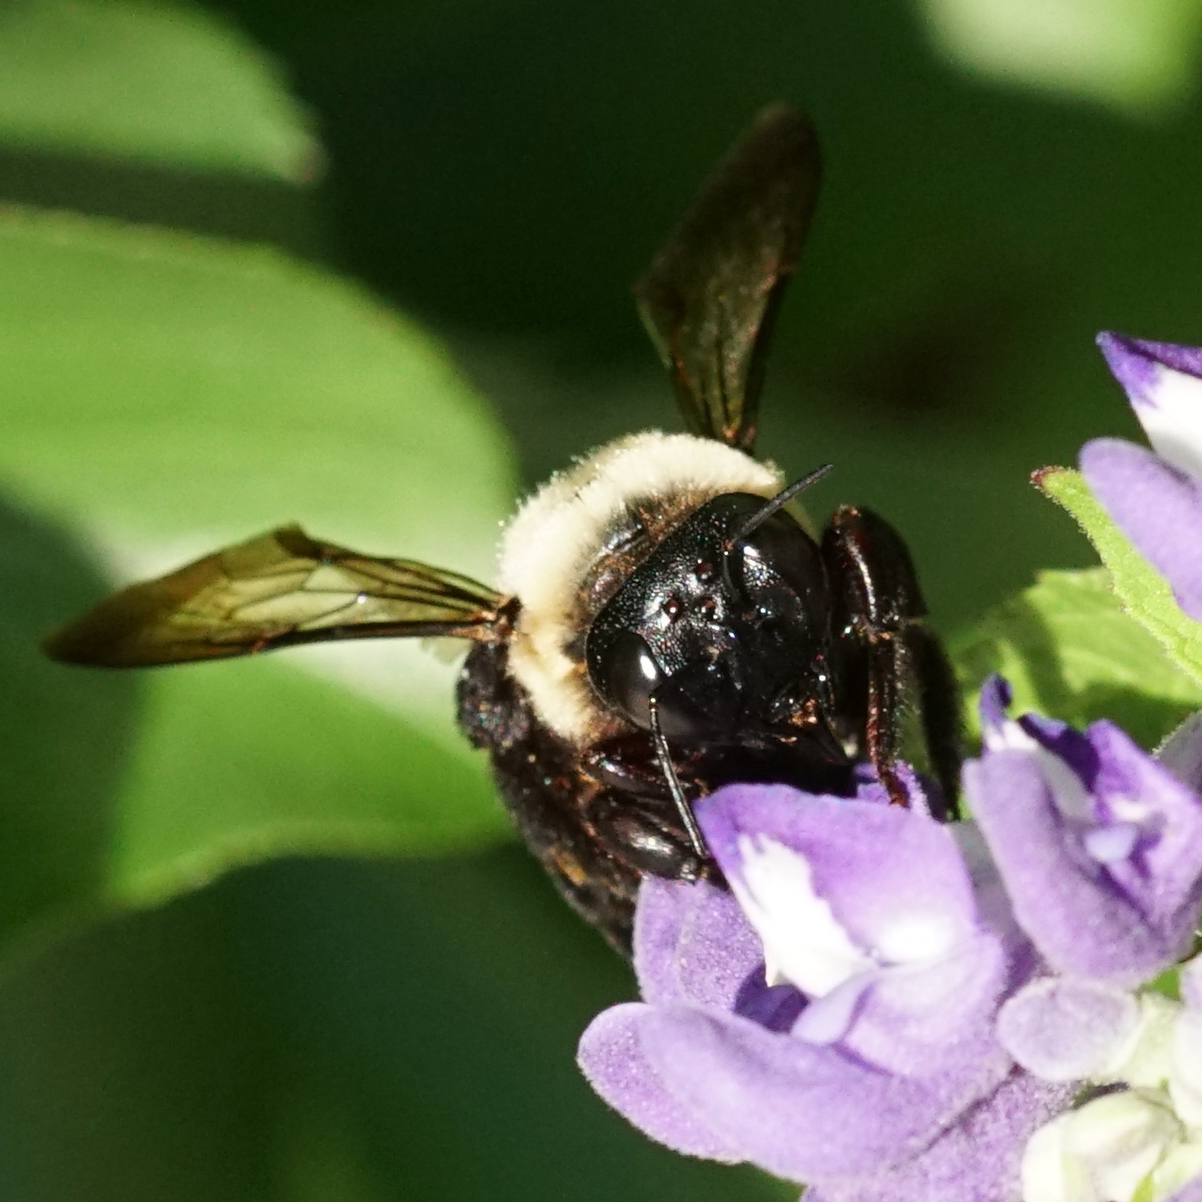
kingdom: Animalia
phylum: Arthropoda
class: Insecta
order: Hymenoptera
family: Apidae
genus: Xylocopa
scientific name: Xylocopa virginica
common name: Carpenter bee
